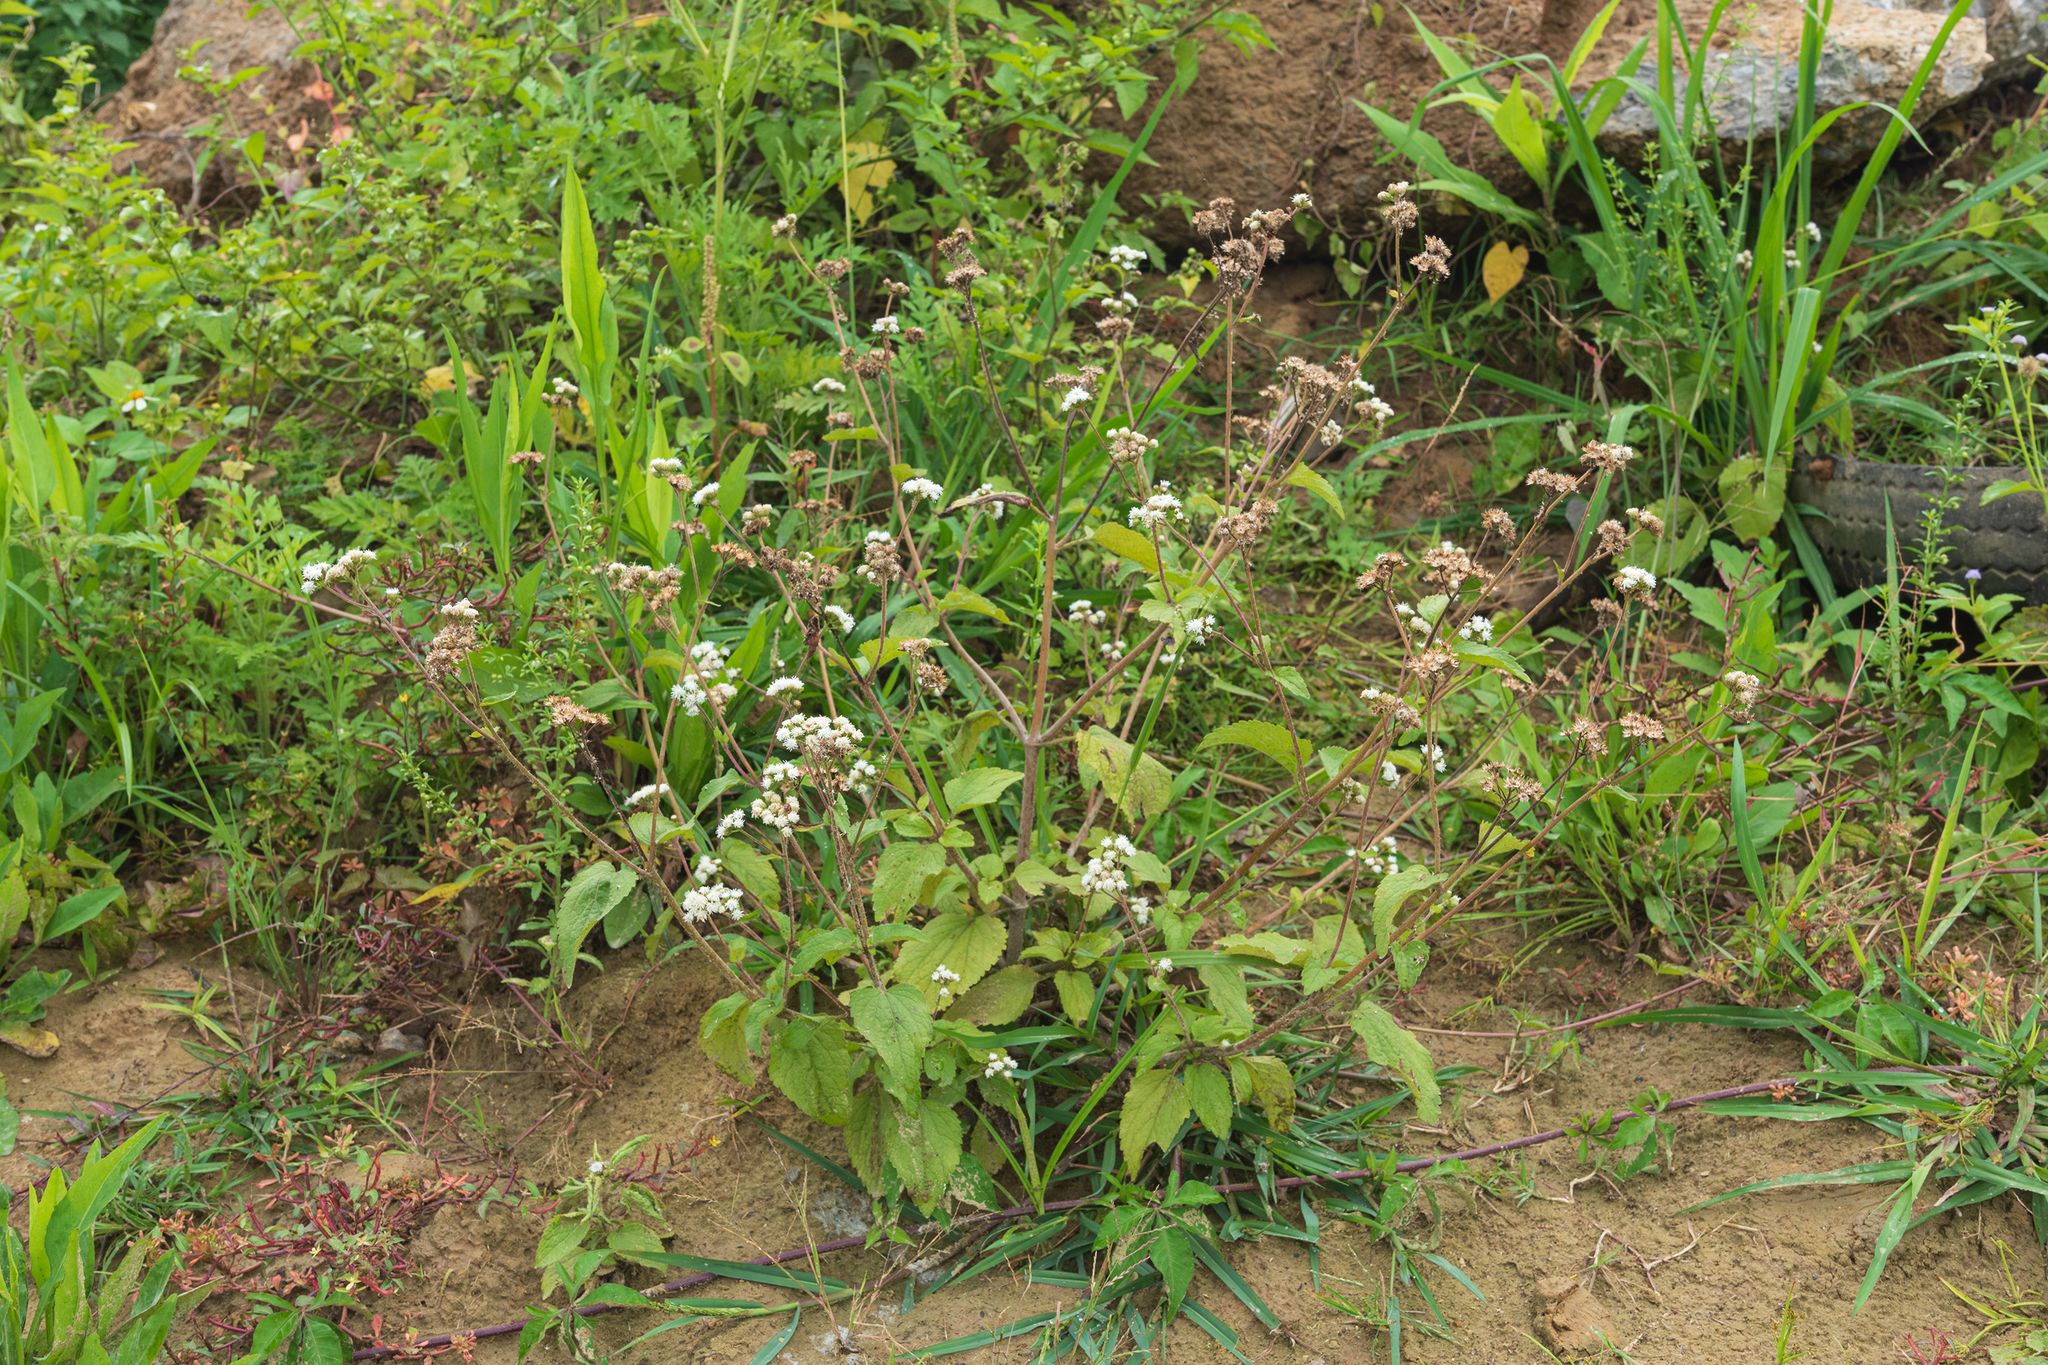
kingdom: Plantae
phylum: Tracheophyta
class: Magnoliopsida
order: Asterales
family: Asteraceae
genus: Ageratum
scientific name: Ageratum conyzoides
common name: Tropical whiteweed
